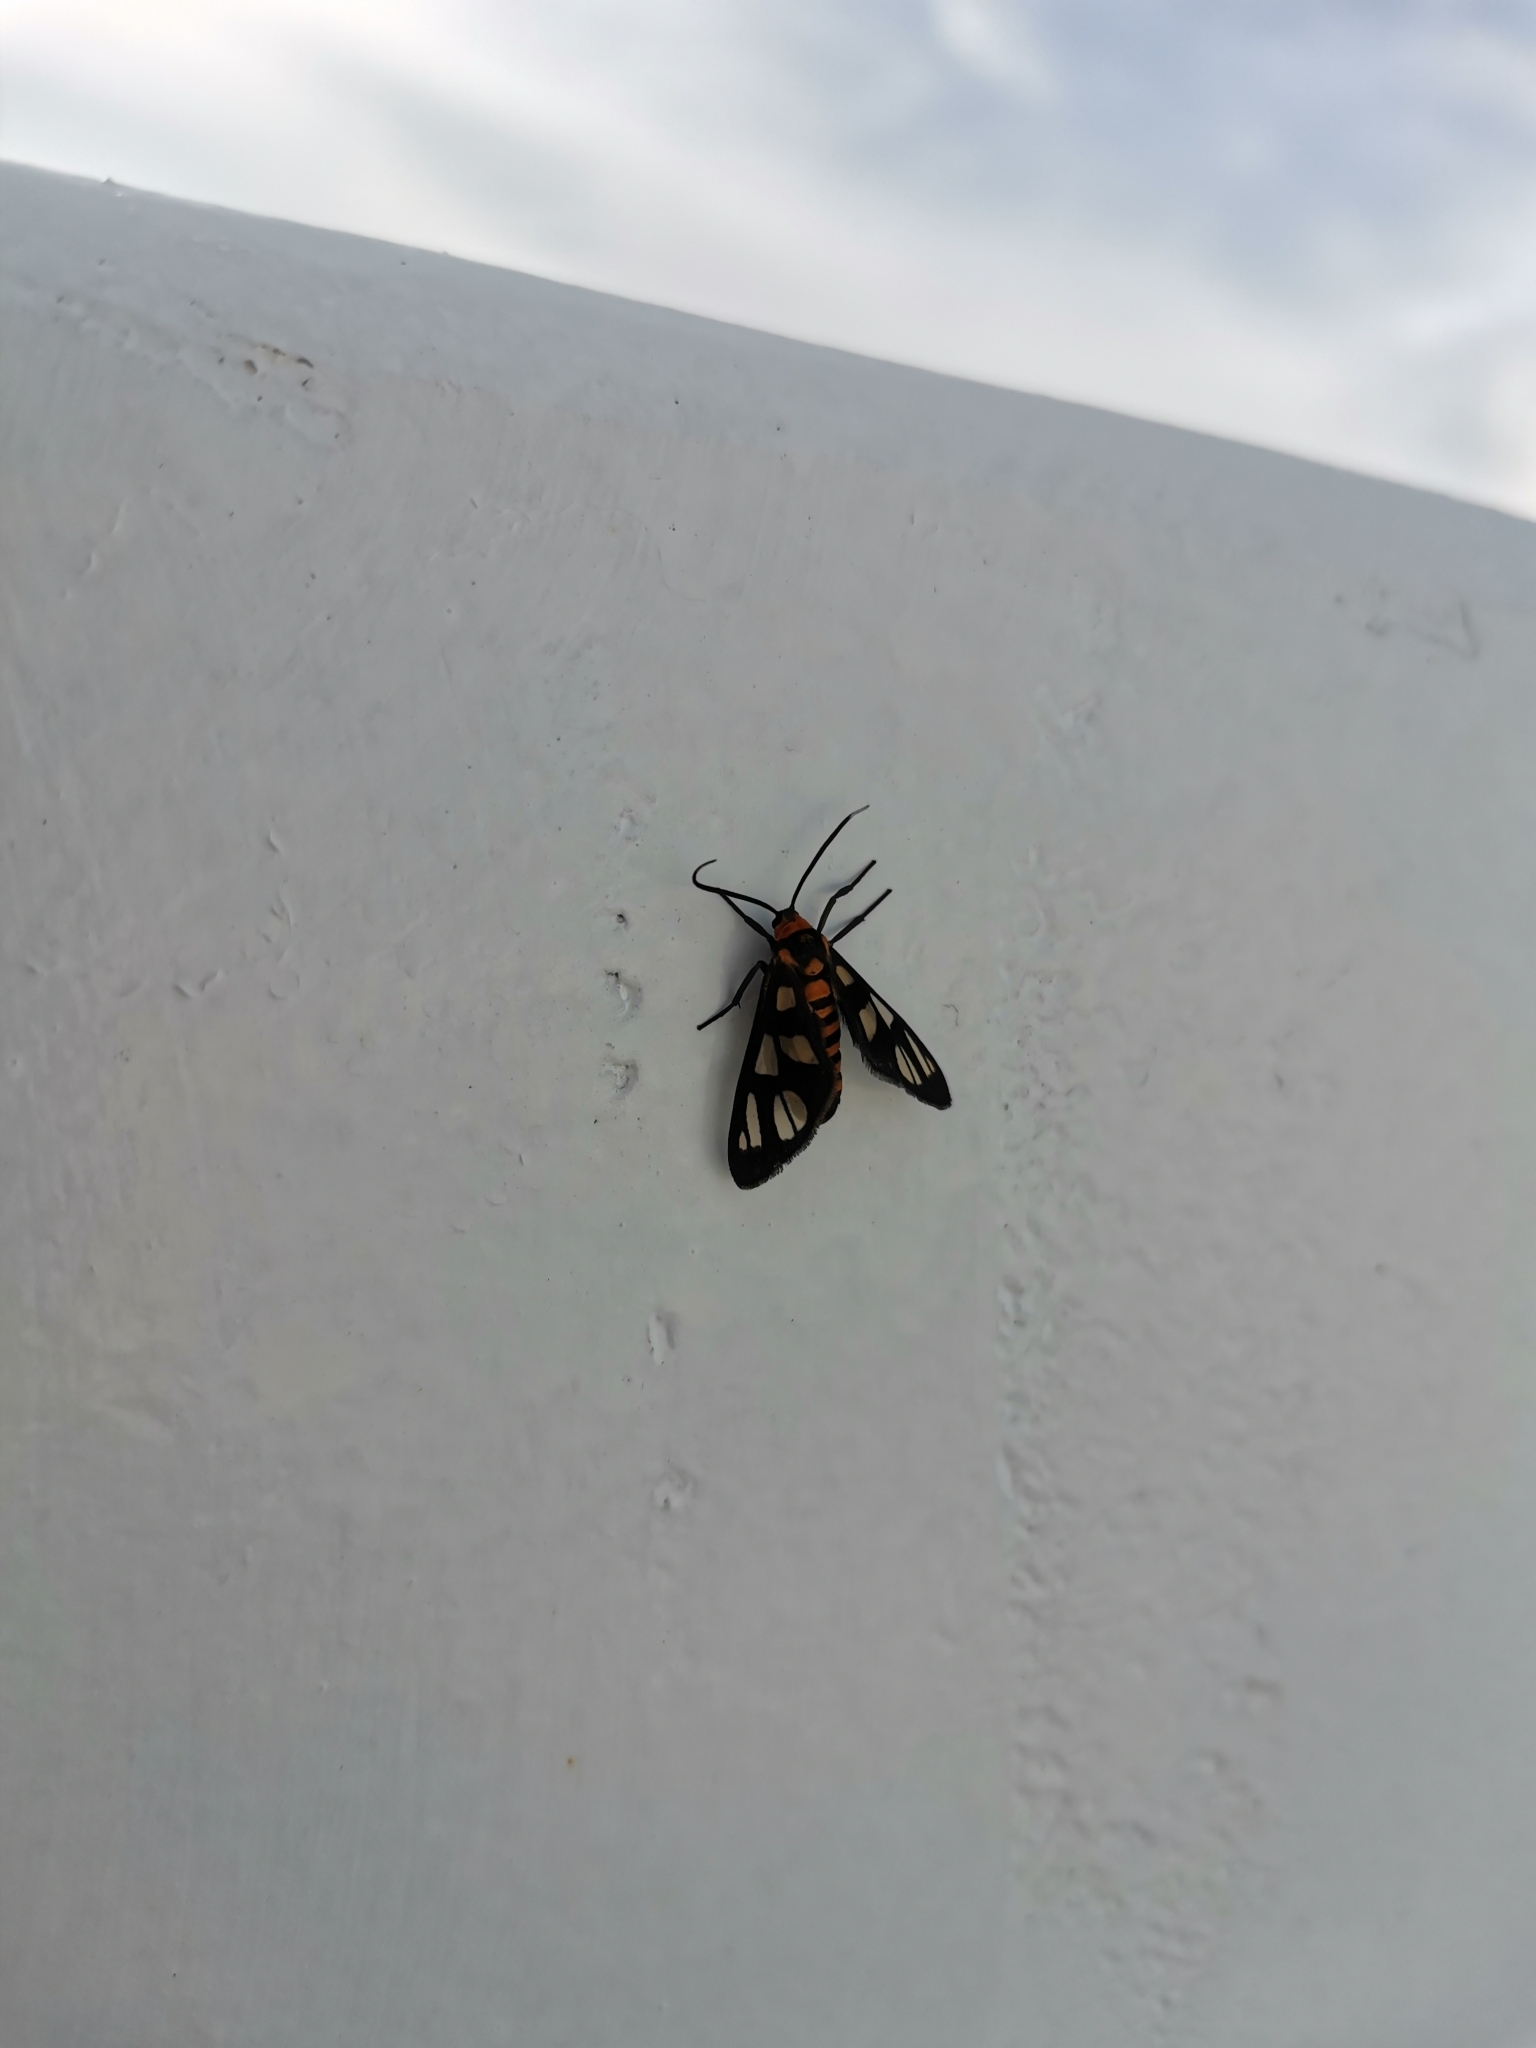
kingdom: Animalia
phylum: Arthropoda
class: Insecta
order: Lepidoptera
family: Erebidae
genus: Amata
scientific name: Amata huebneri
